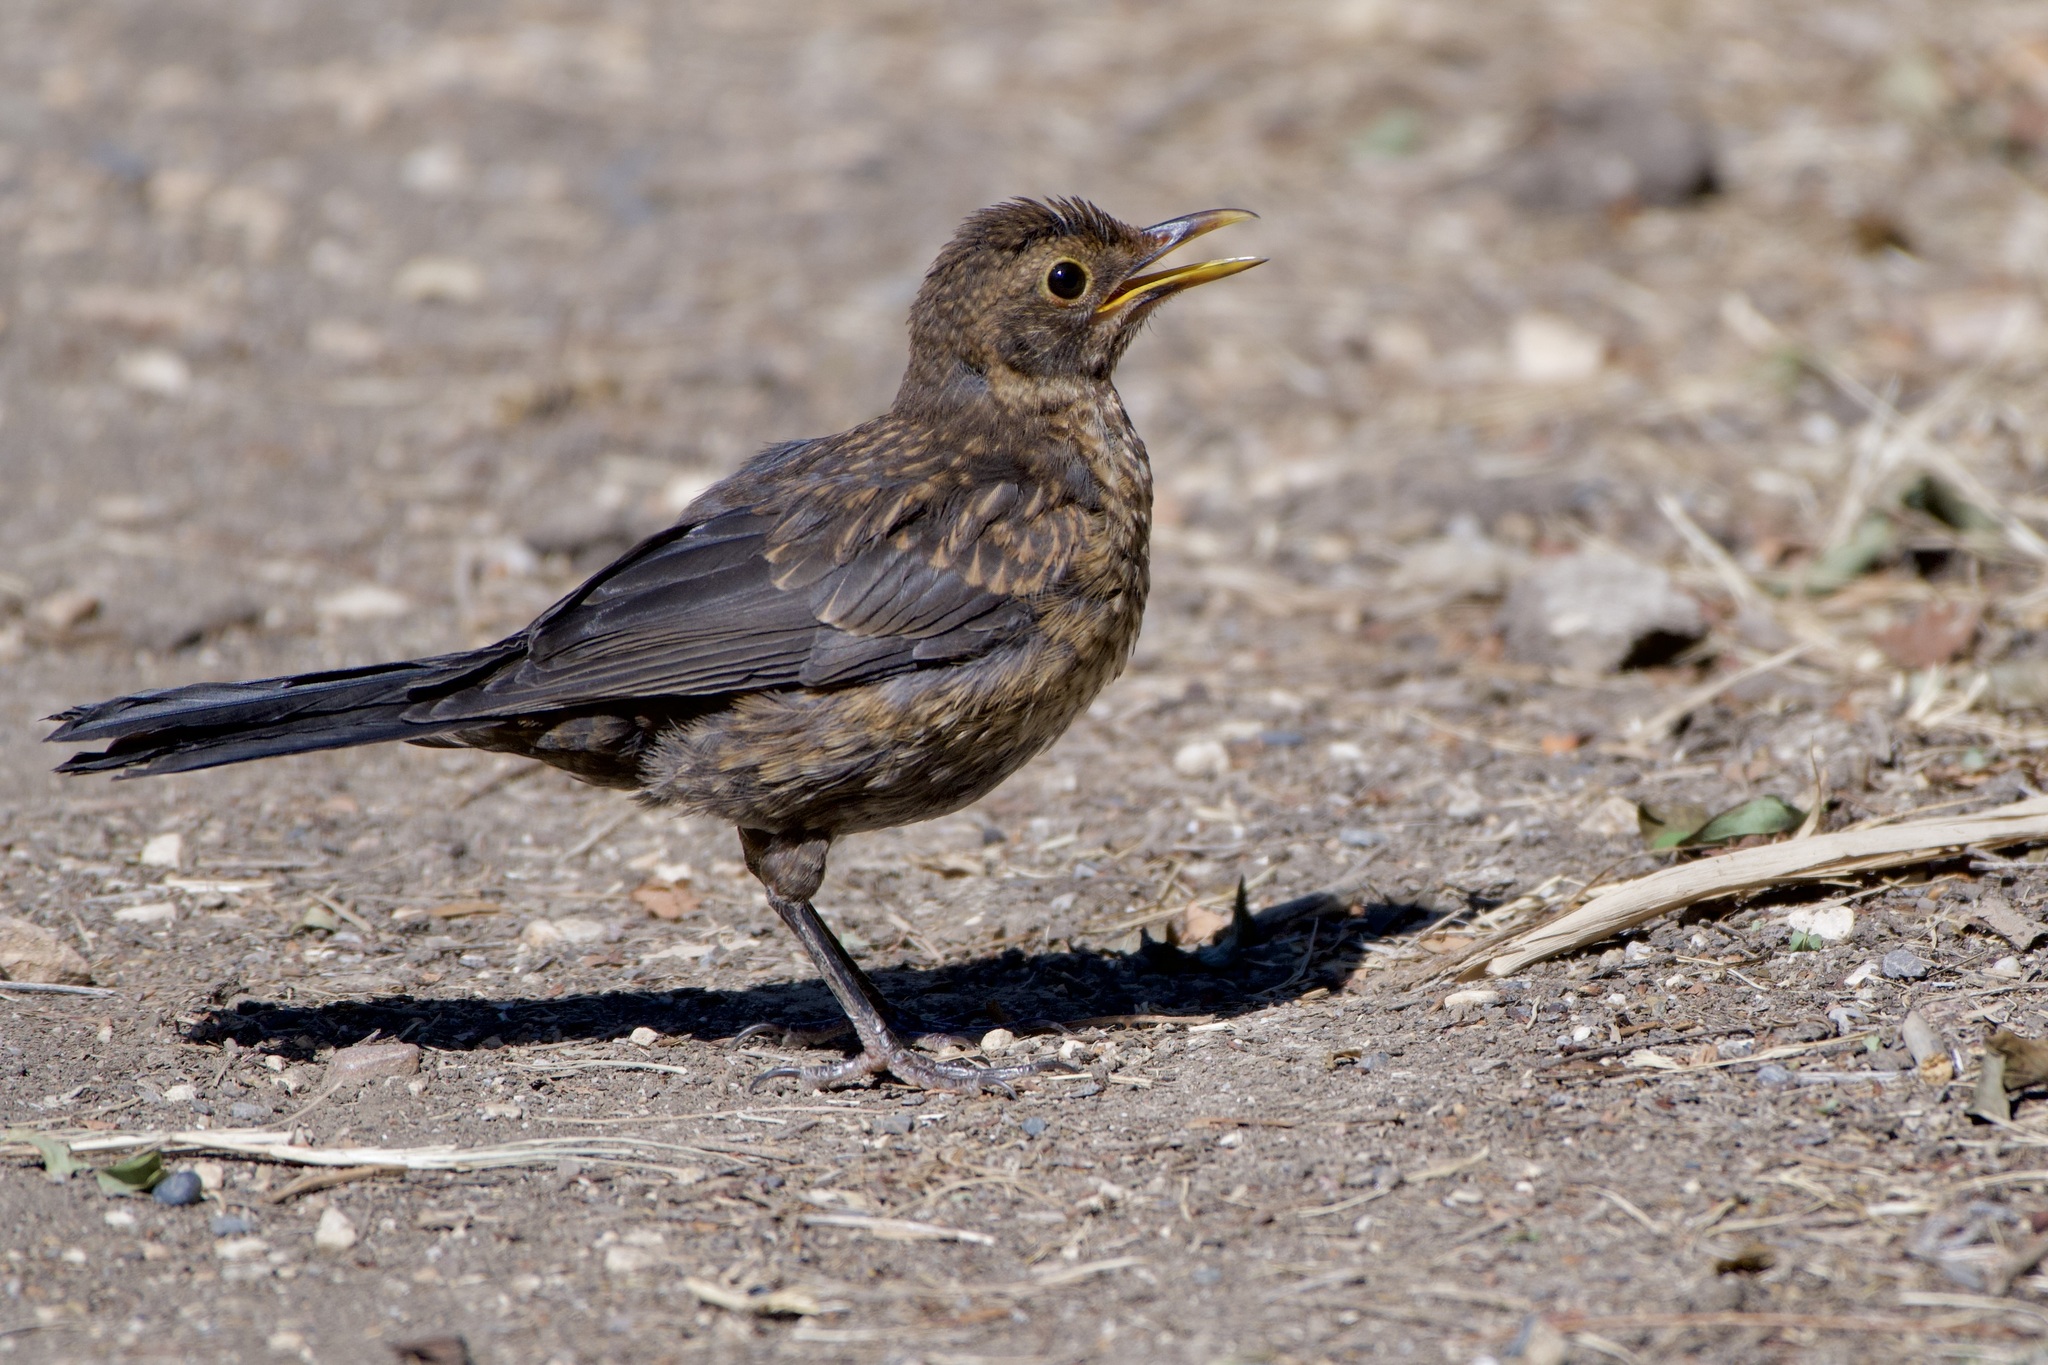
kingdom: Animalia
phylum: Chordata
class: Aves
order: Passeriformes
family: Turdidae
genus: Turdus
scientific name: Turdus merula
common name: Common blackbird
